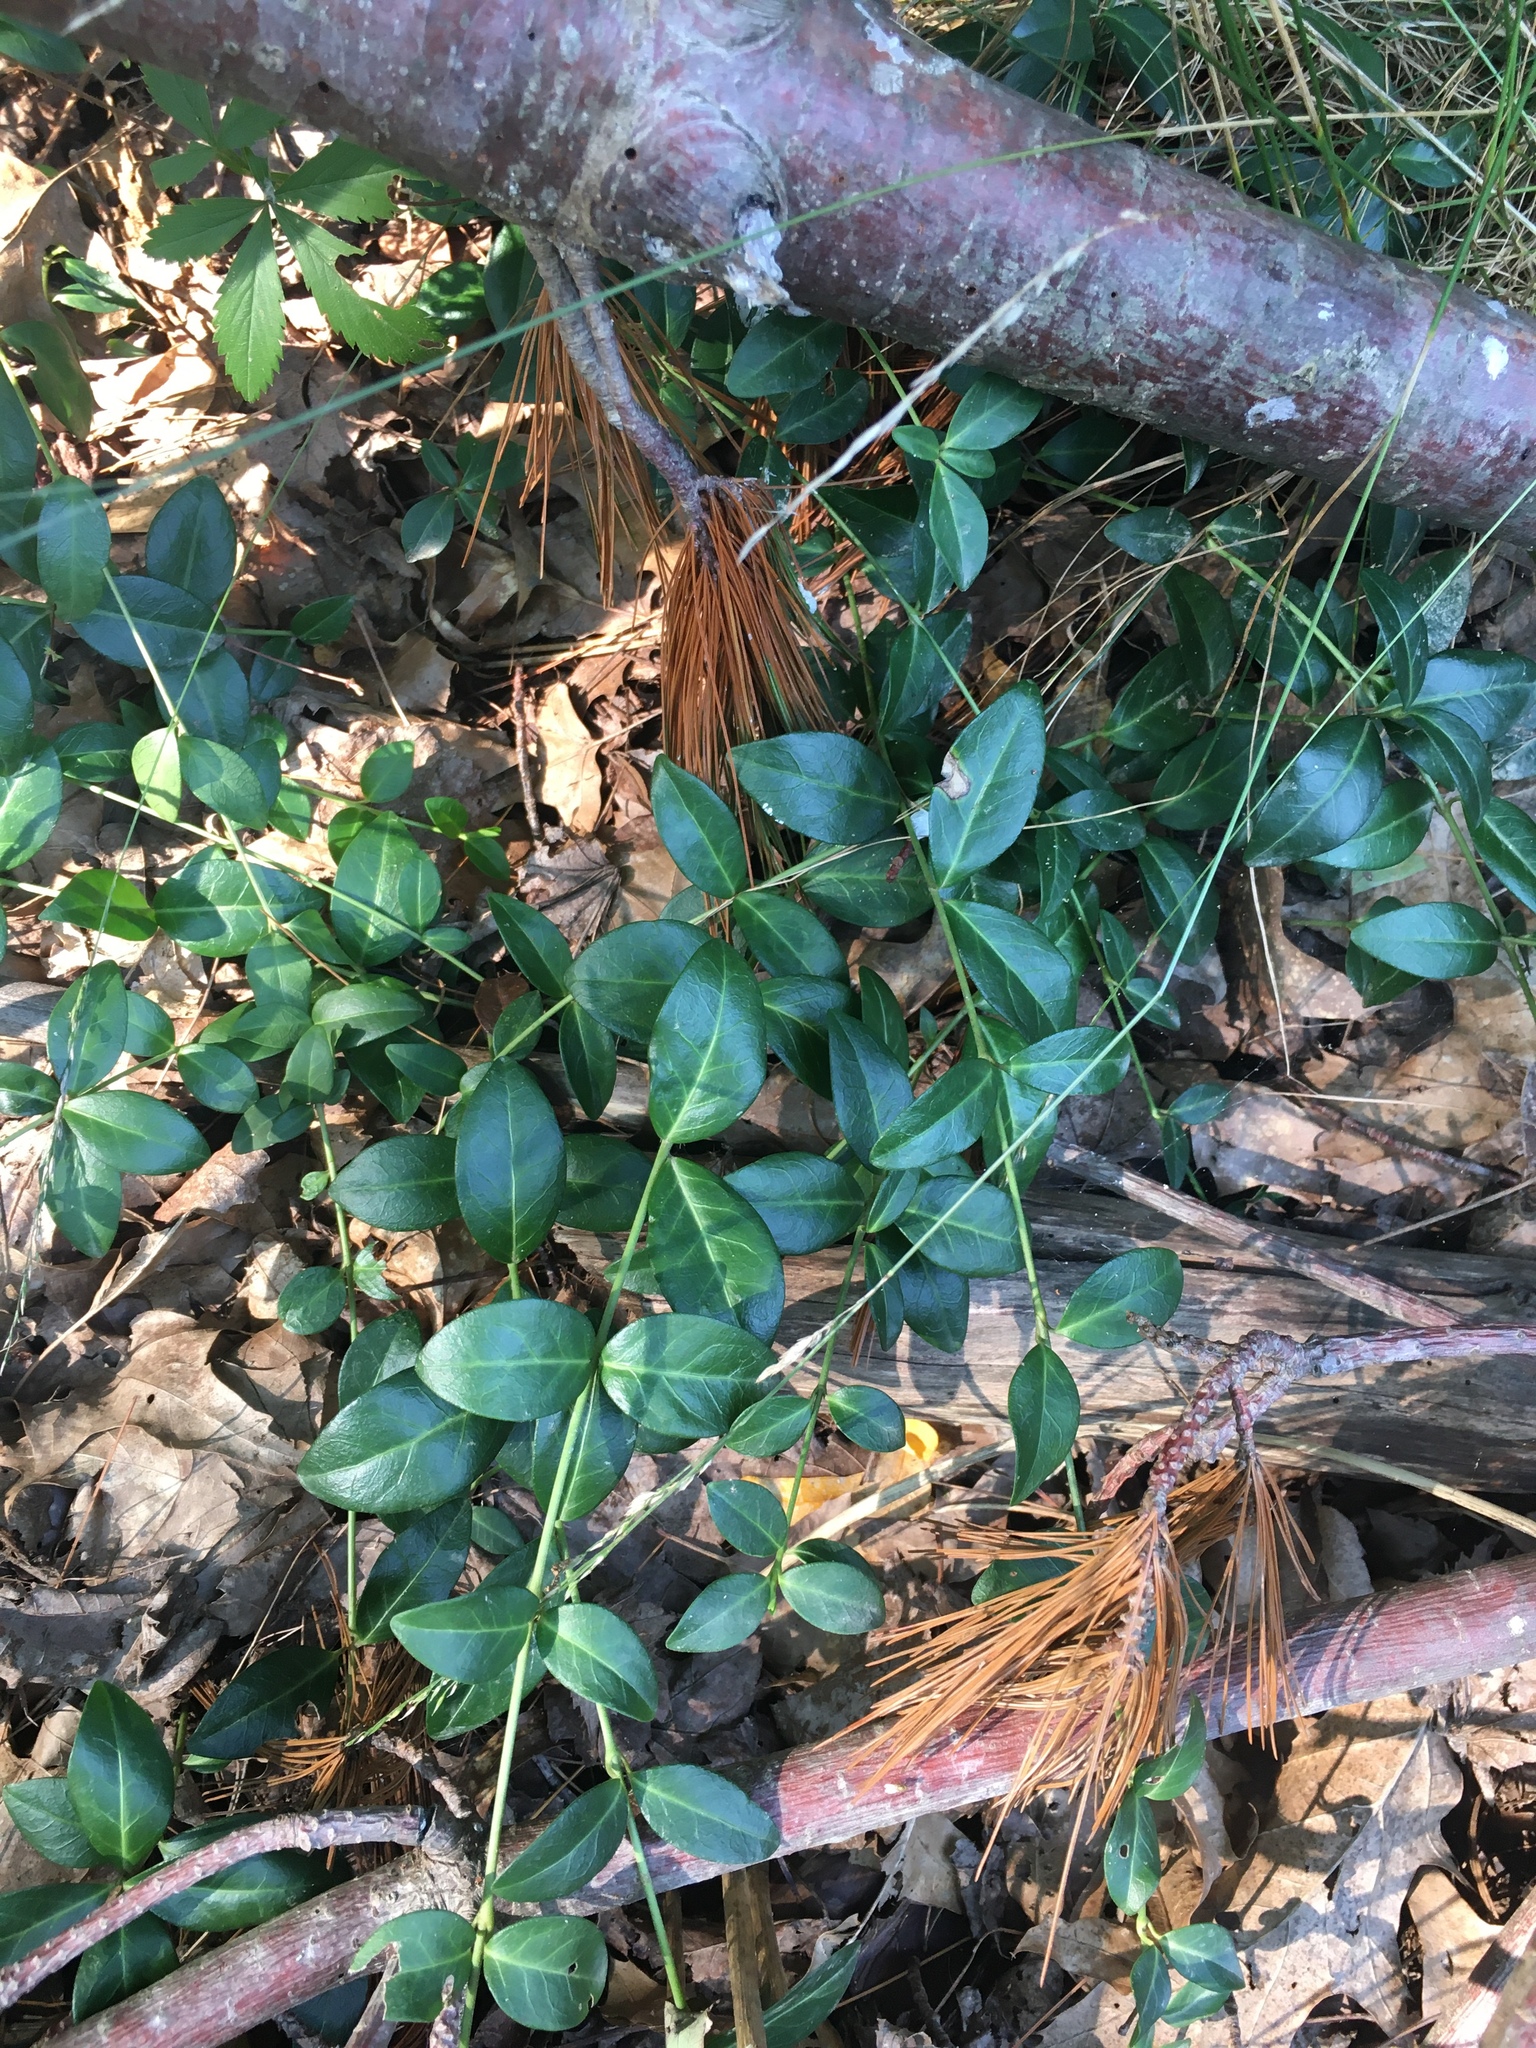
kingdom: Plantae
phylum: Tracheophyta
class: Magnoliopsida
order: Gentianales
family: Apocynaceae
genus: Vinca
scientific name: Vinca minor
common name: Lesser periwinkle
